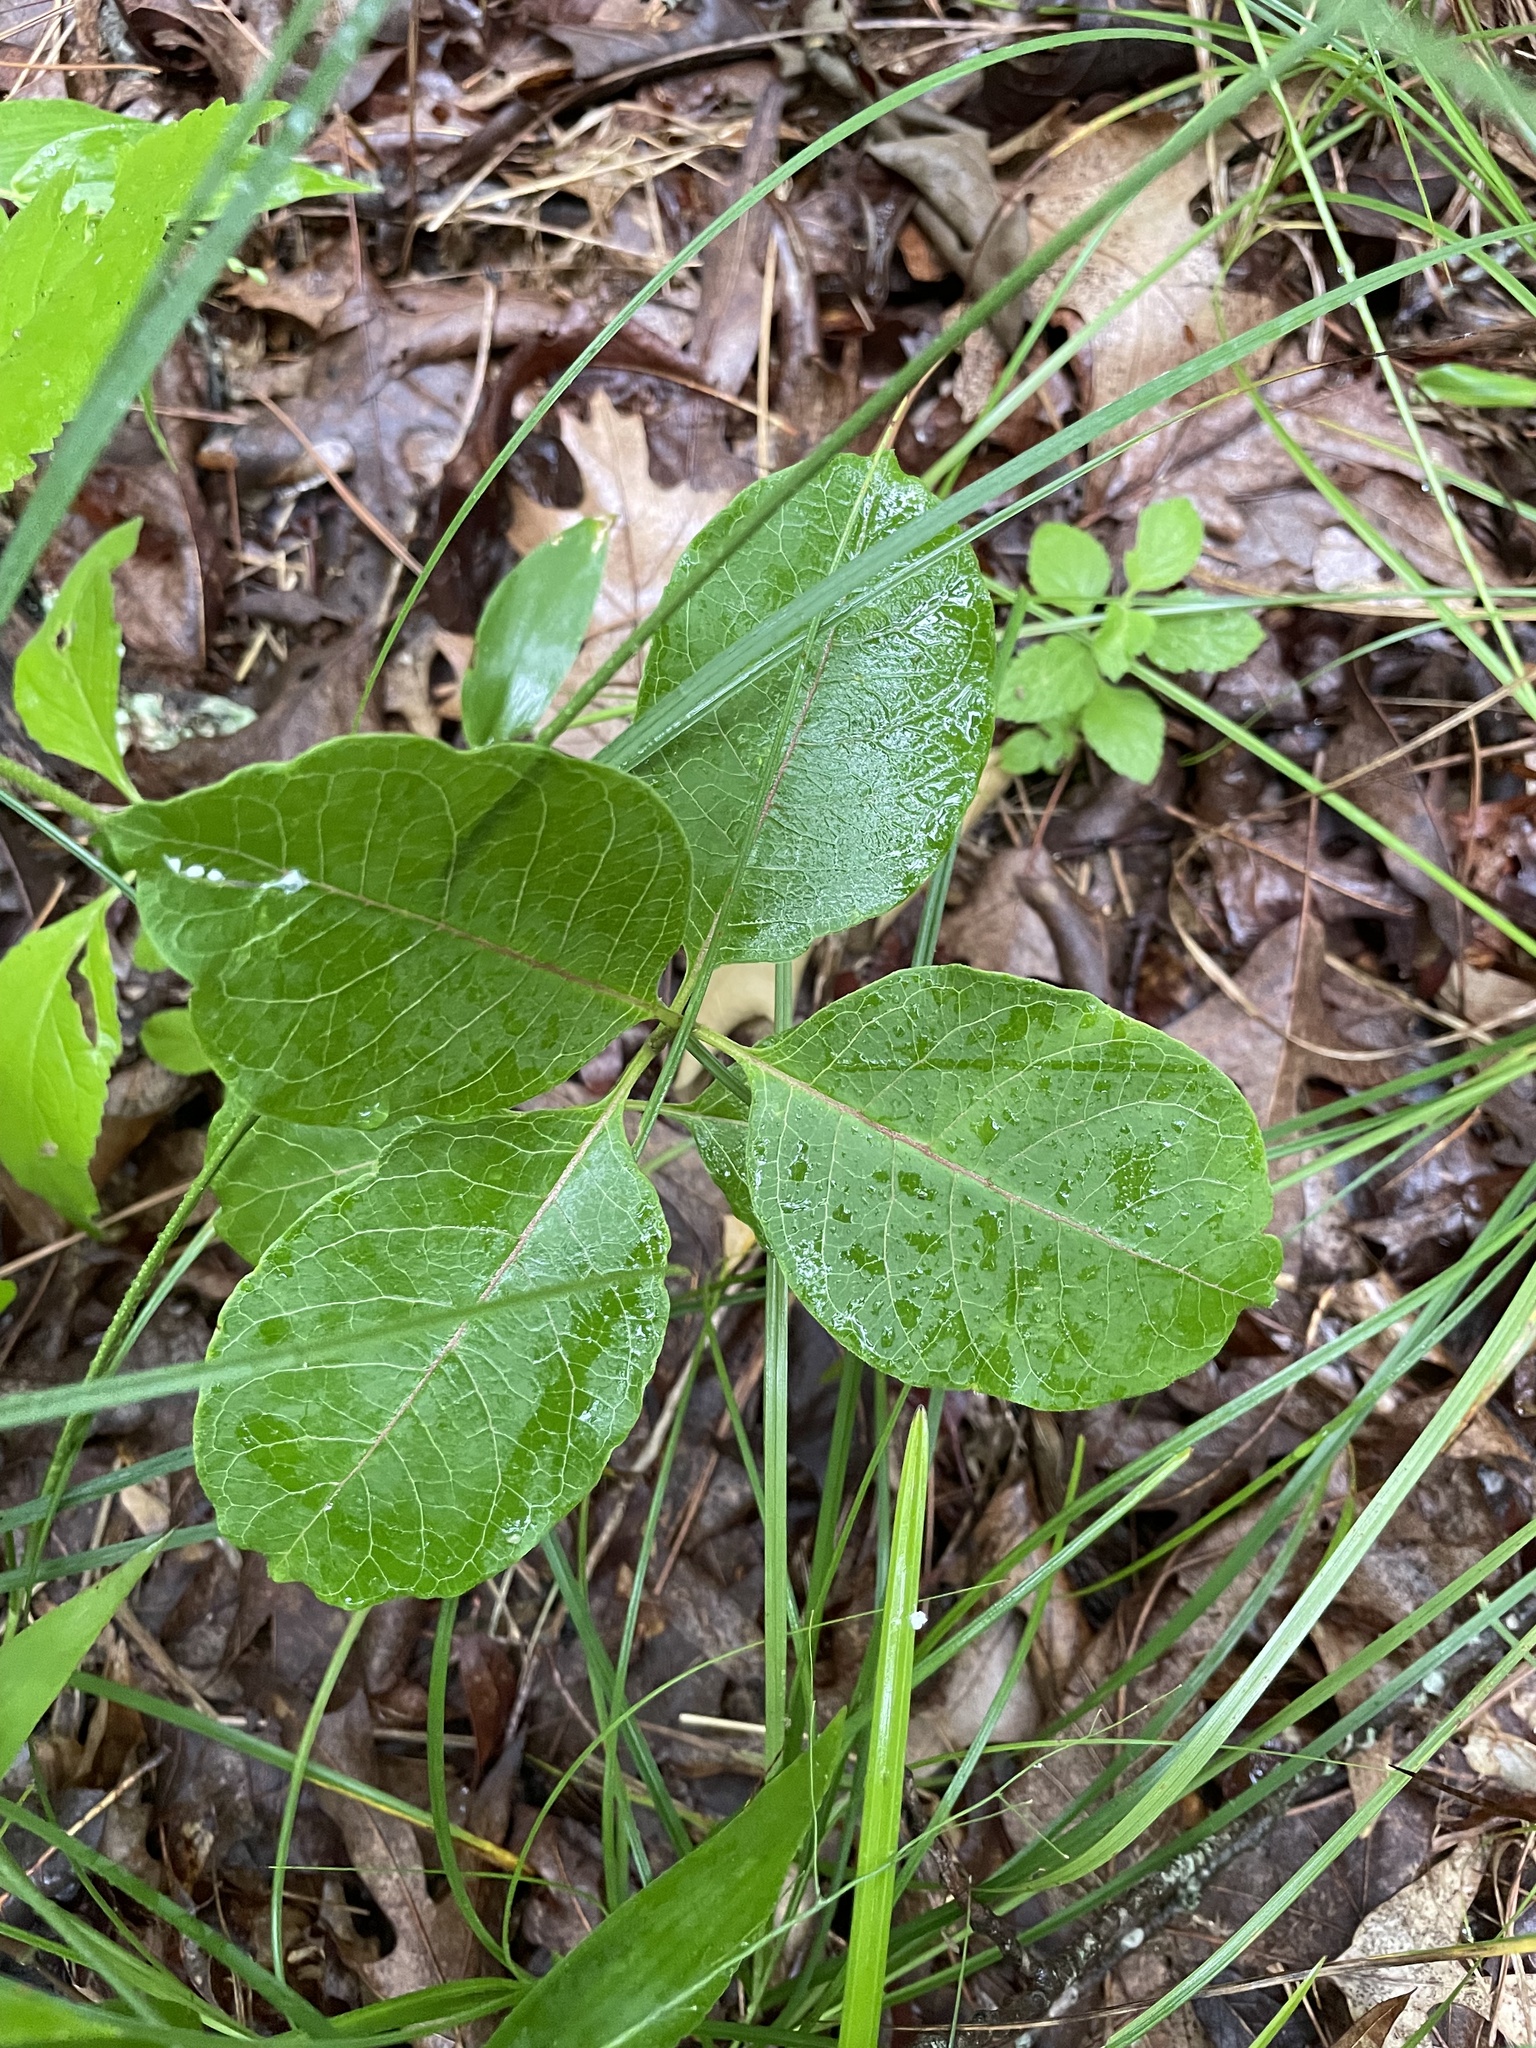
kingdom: Plantae
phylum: Tracheophyta
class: Magnoliopsida
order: Gentianales
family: Apocynaceae
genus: Asclepias
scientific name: Asclepias variegata
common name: Variegated milkweed
